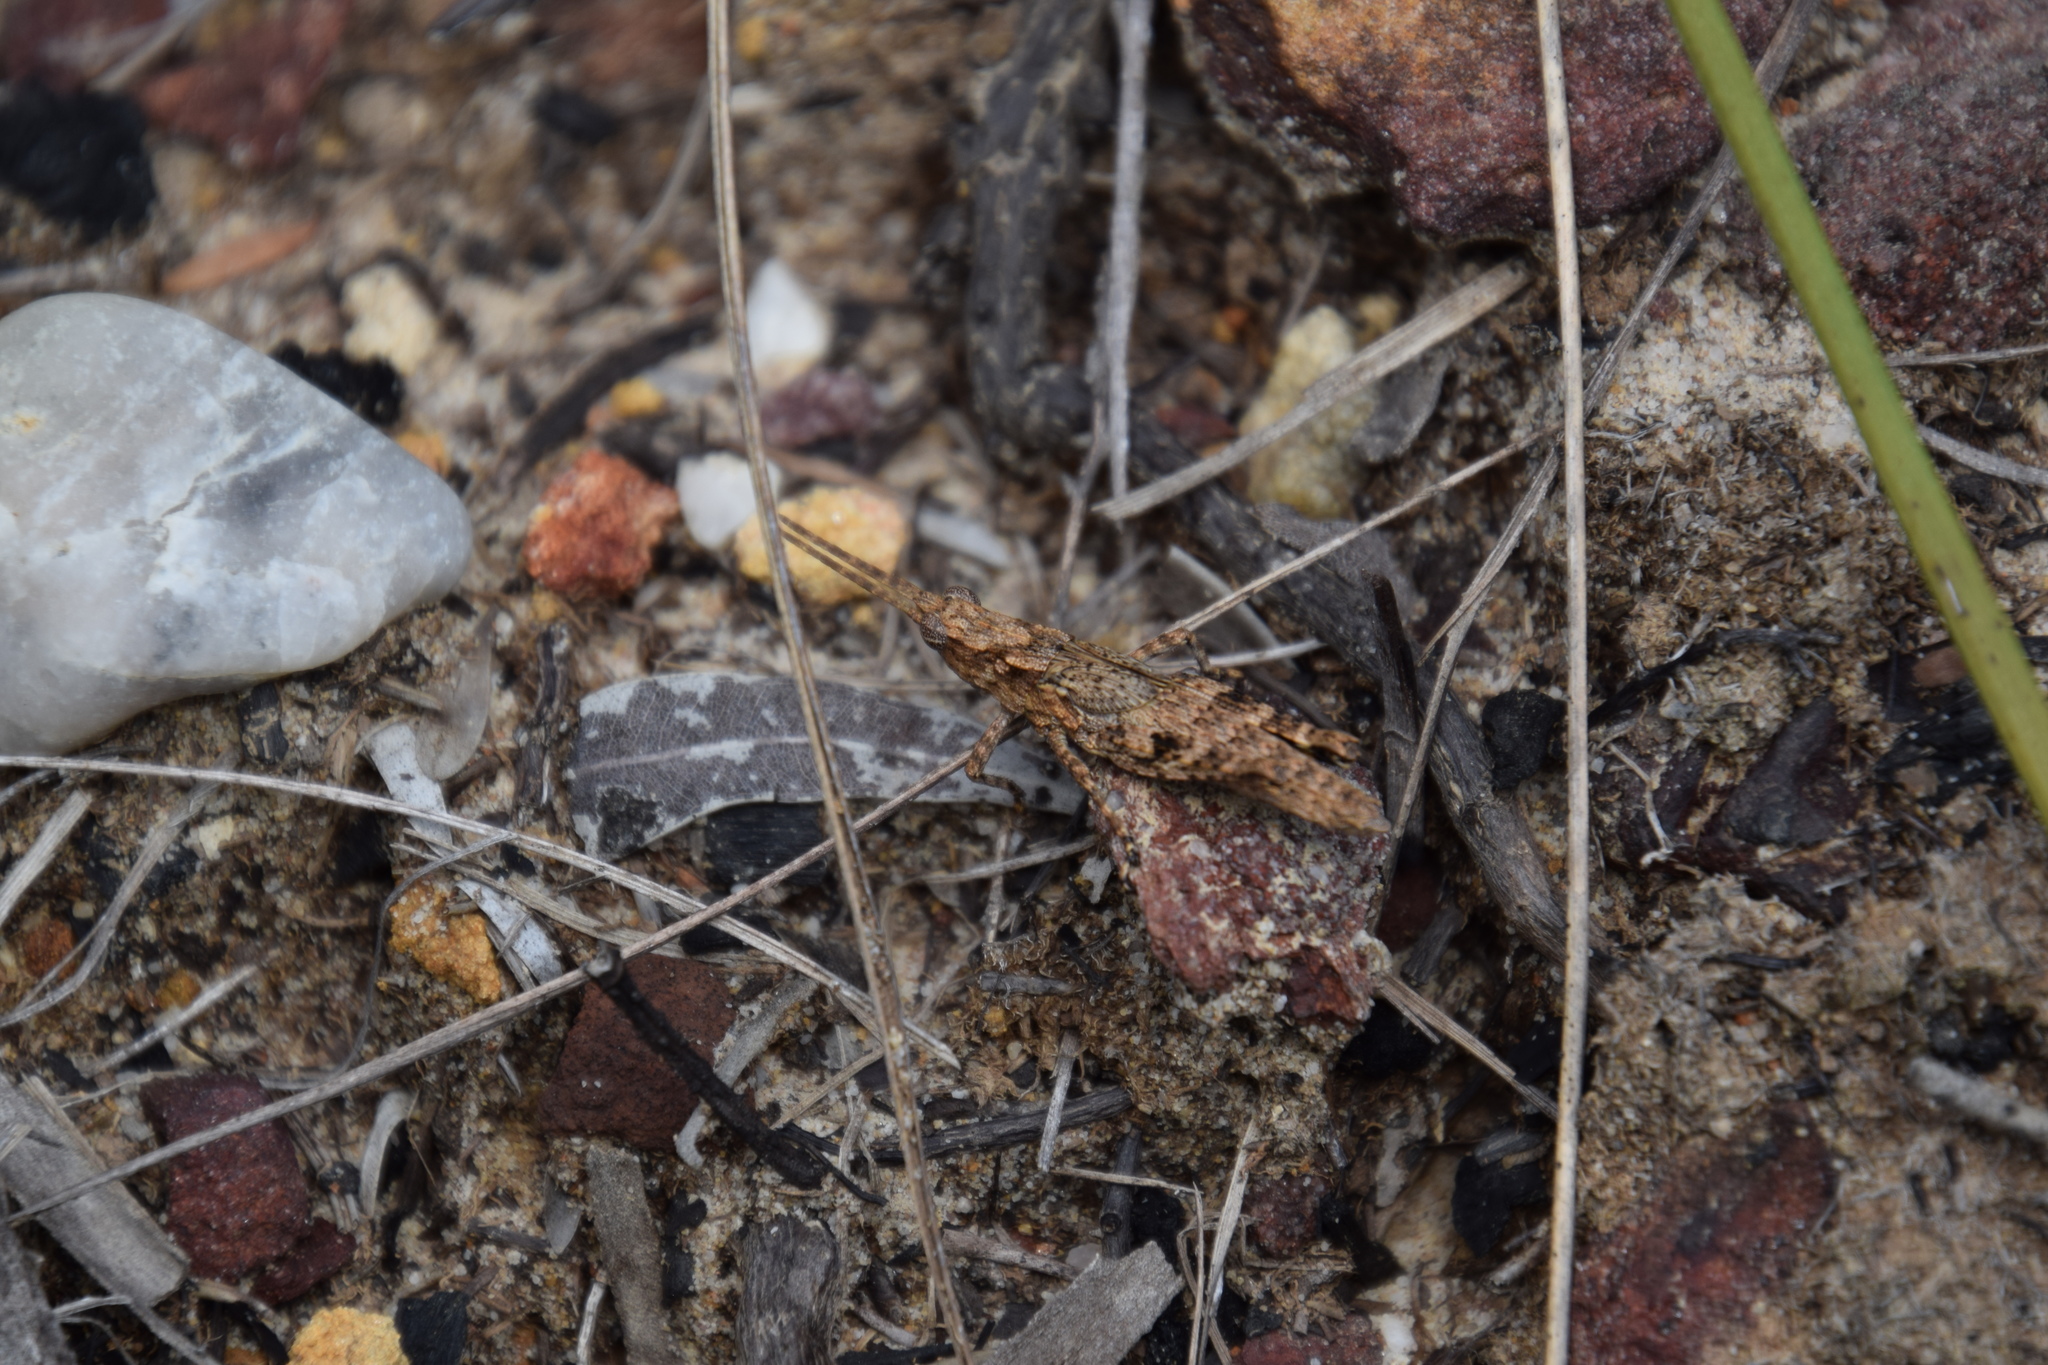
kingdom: Animalia
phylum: Arthropoda
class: Insecta
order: Orthoptera
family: Acrididae
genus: Coryphistes
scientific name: Coryphistes ruricola
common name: Bark-mimicking grasshopper
